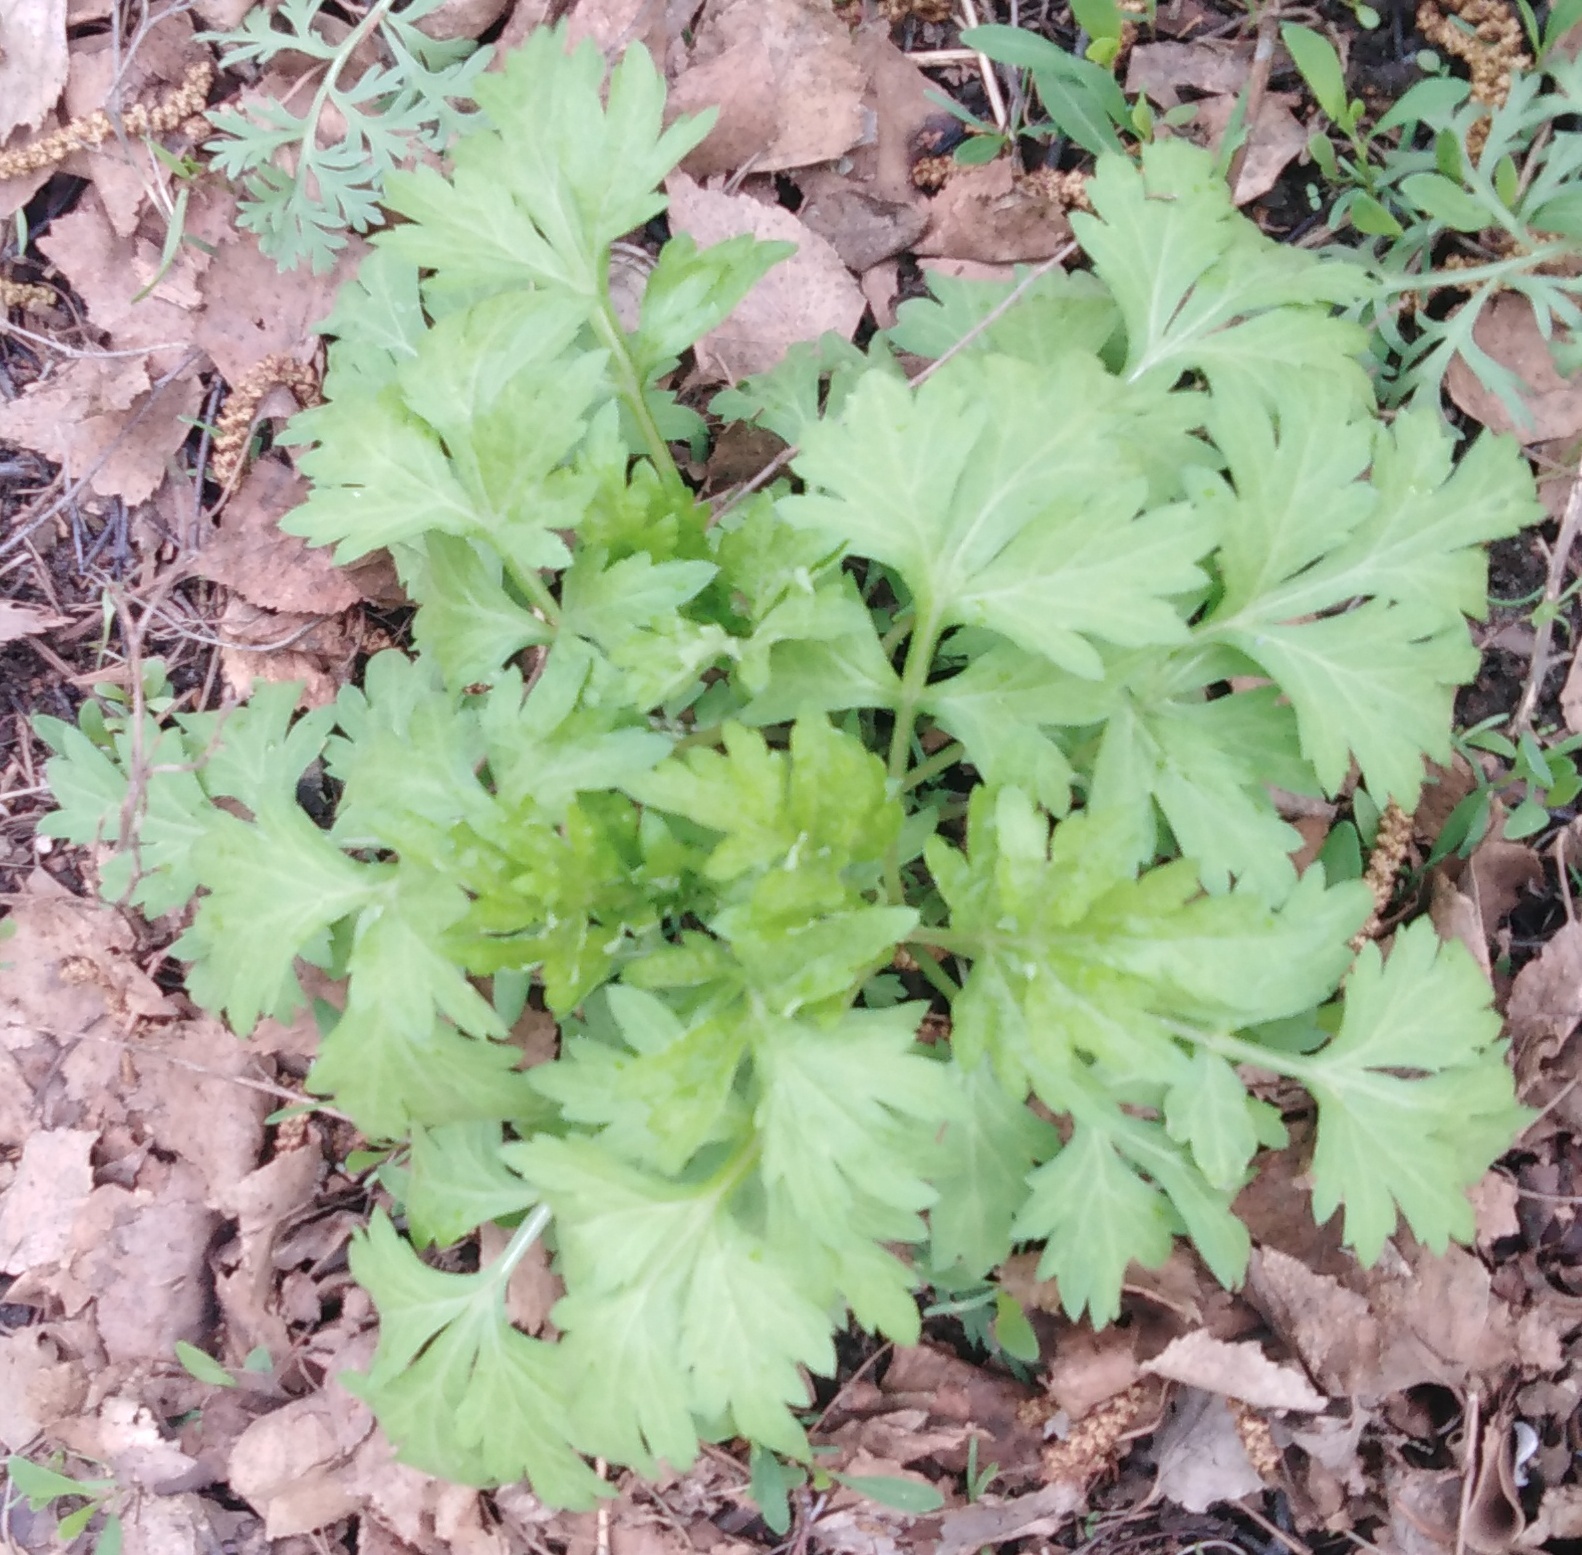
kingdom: Plantae
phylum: Tracheophyta
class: Magnoliopsida
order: Asterales
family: Asteraceae
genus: Artemisia
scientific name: Artemisia vulgaris
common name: Mugwort
